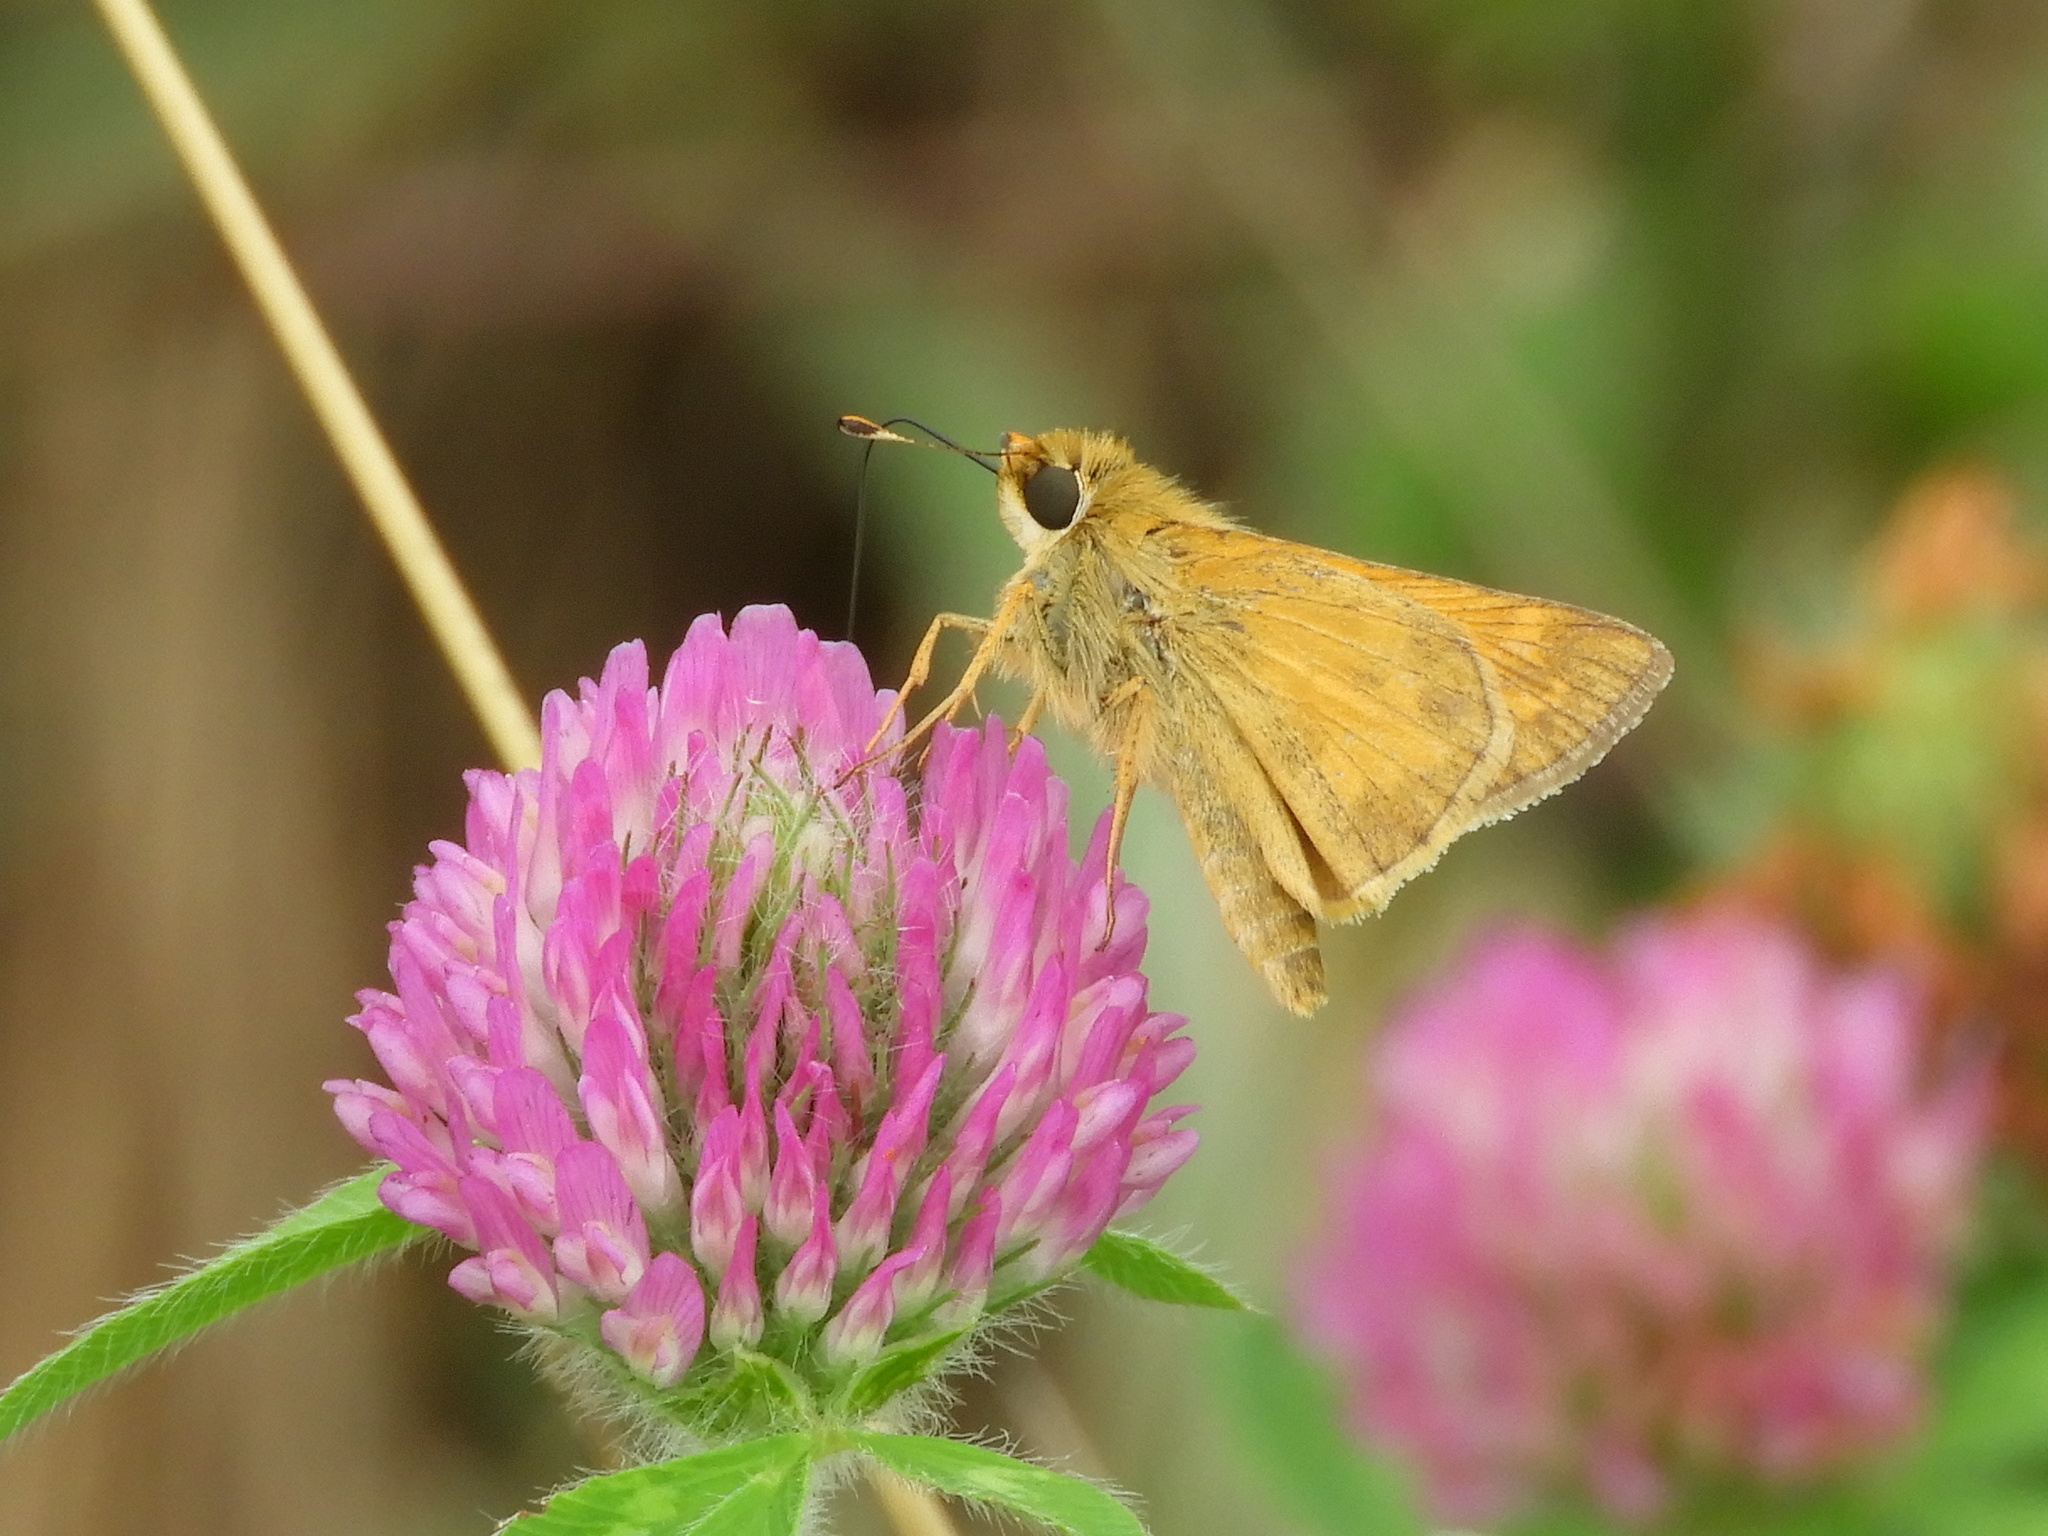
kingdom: Animalia
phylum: Arthropoda
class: Insecta
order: Lepidoptera
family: Hesperiidae
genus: Atalopedes
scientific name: Atalopedes
